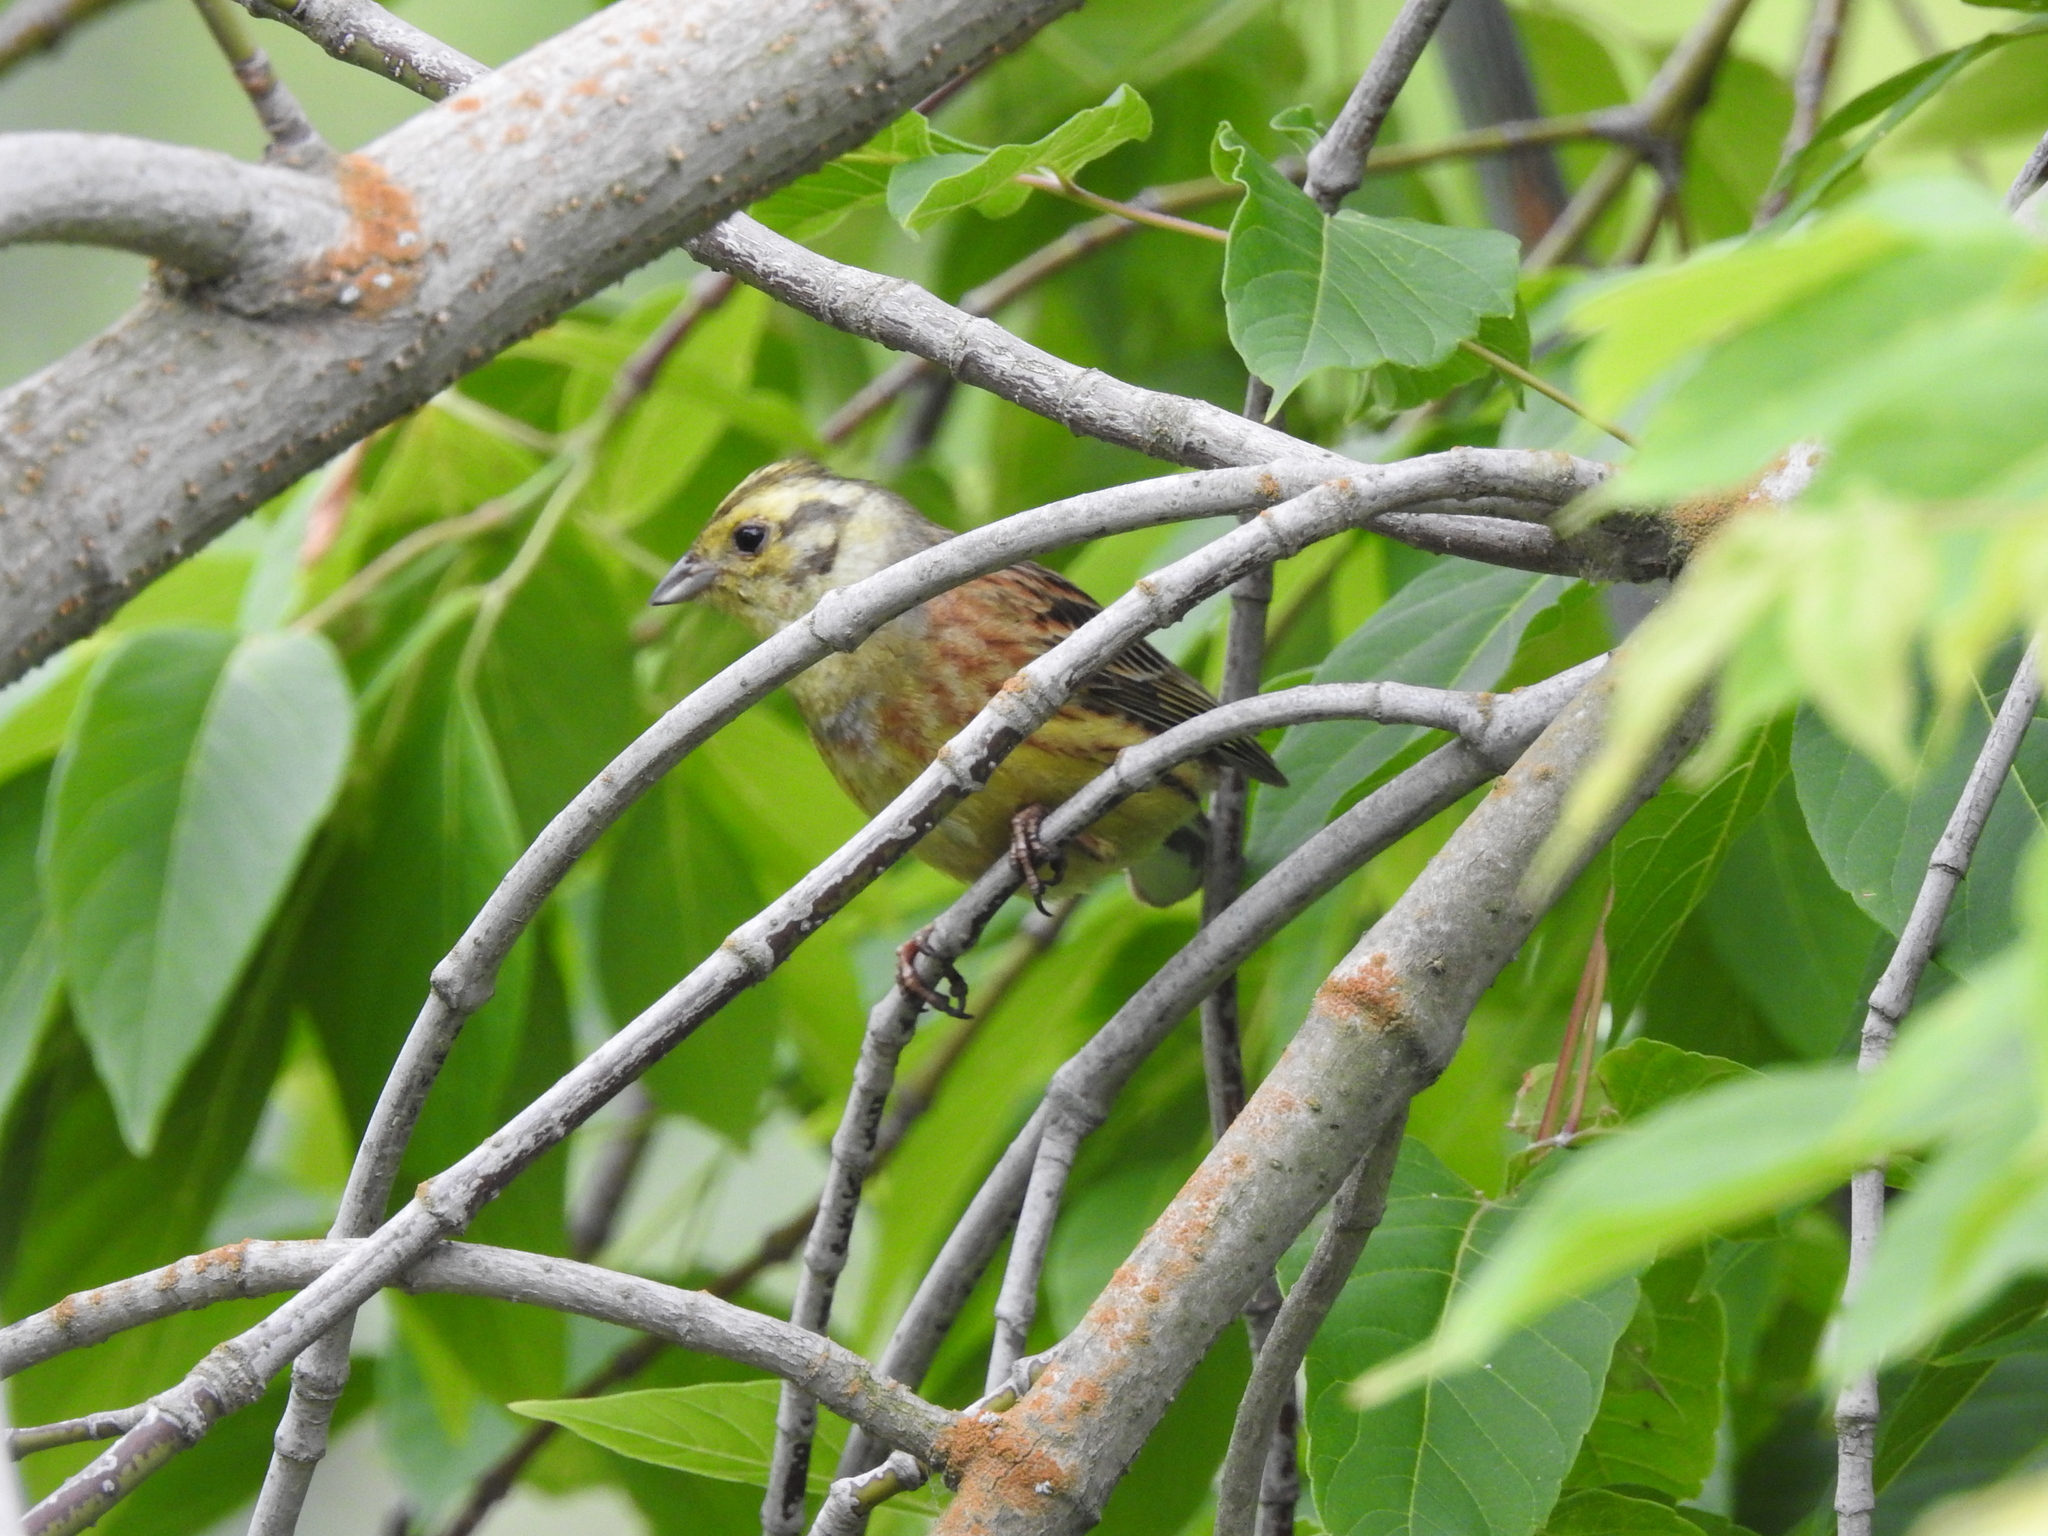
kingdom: Animalia
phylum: Chordata
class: Aves
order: Passeriformes
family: Emberizidae
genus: Emberiza
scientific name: Emberiza citrinella
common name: Yellowhammer
